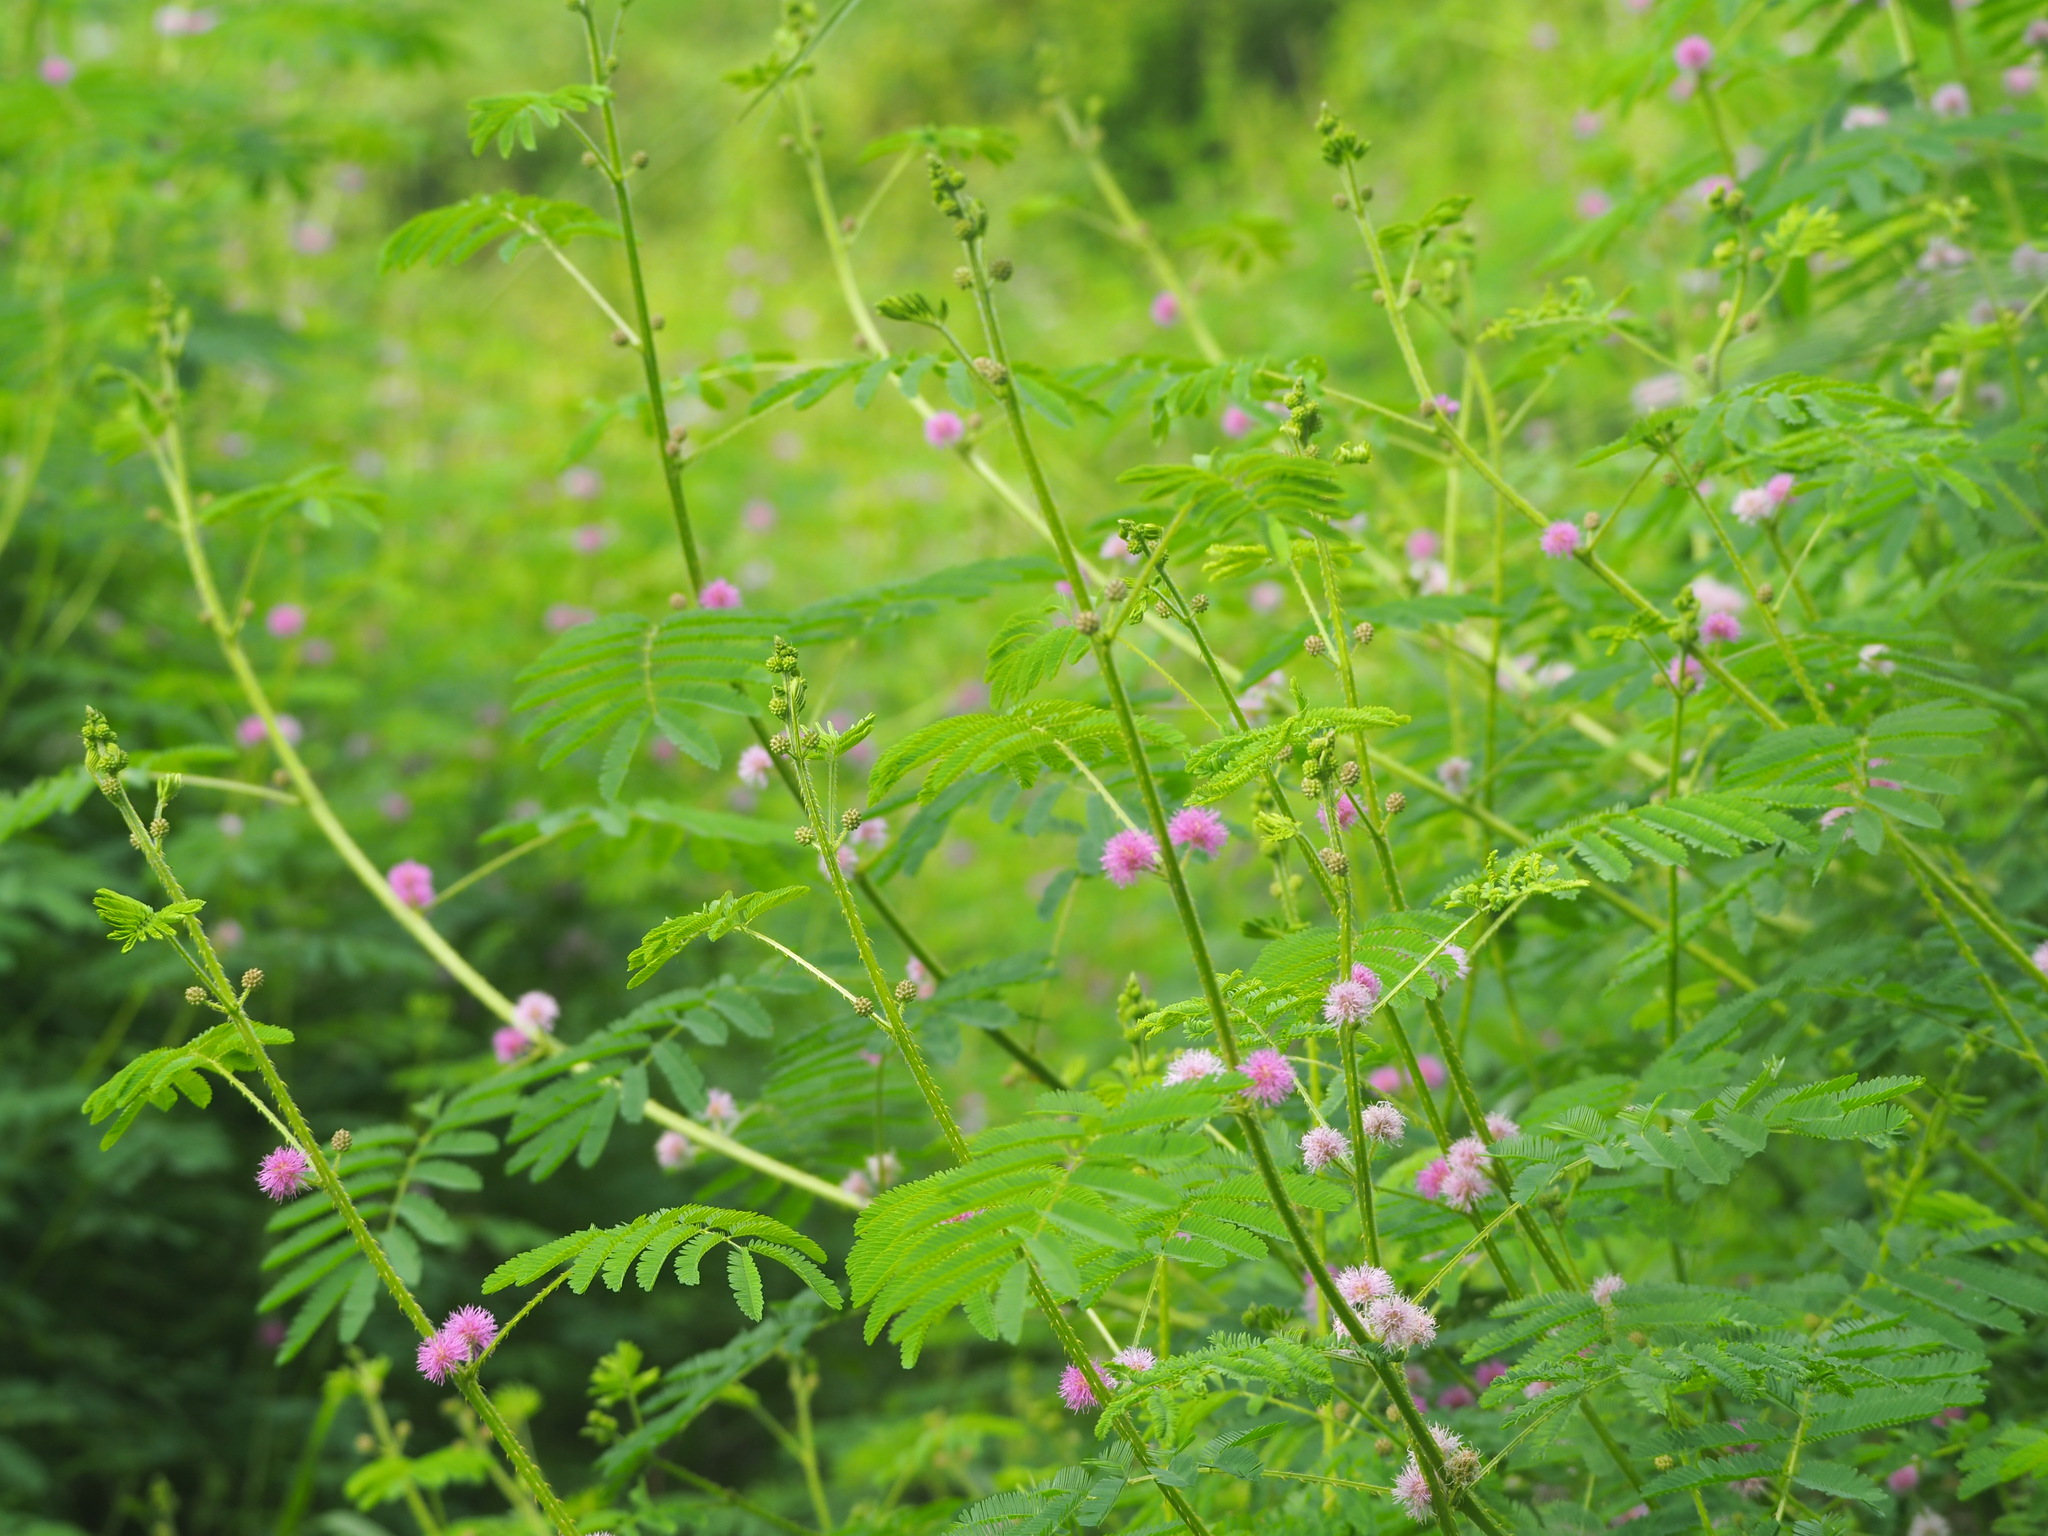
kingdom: Plantae
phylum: Tracheophyta
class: Magnoliopsida
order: Fabales
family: Fabaceae
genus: Mimosa
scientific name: Mimosa diplotricha
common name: Giant sensitive-plant
